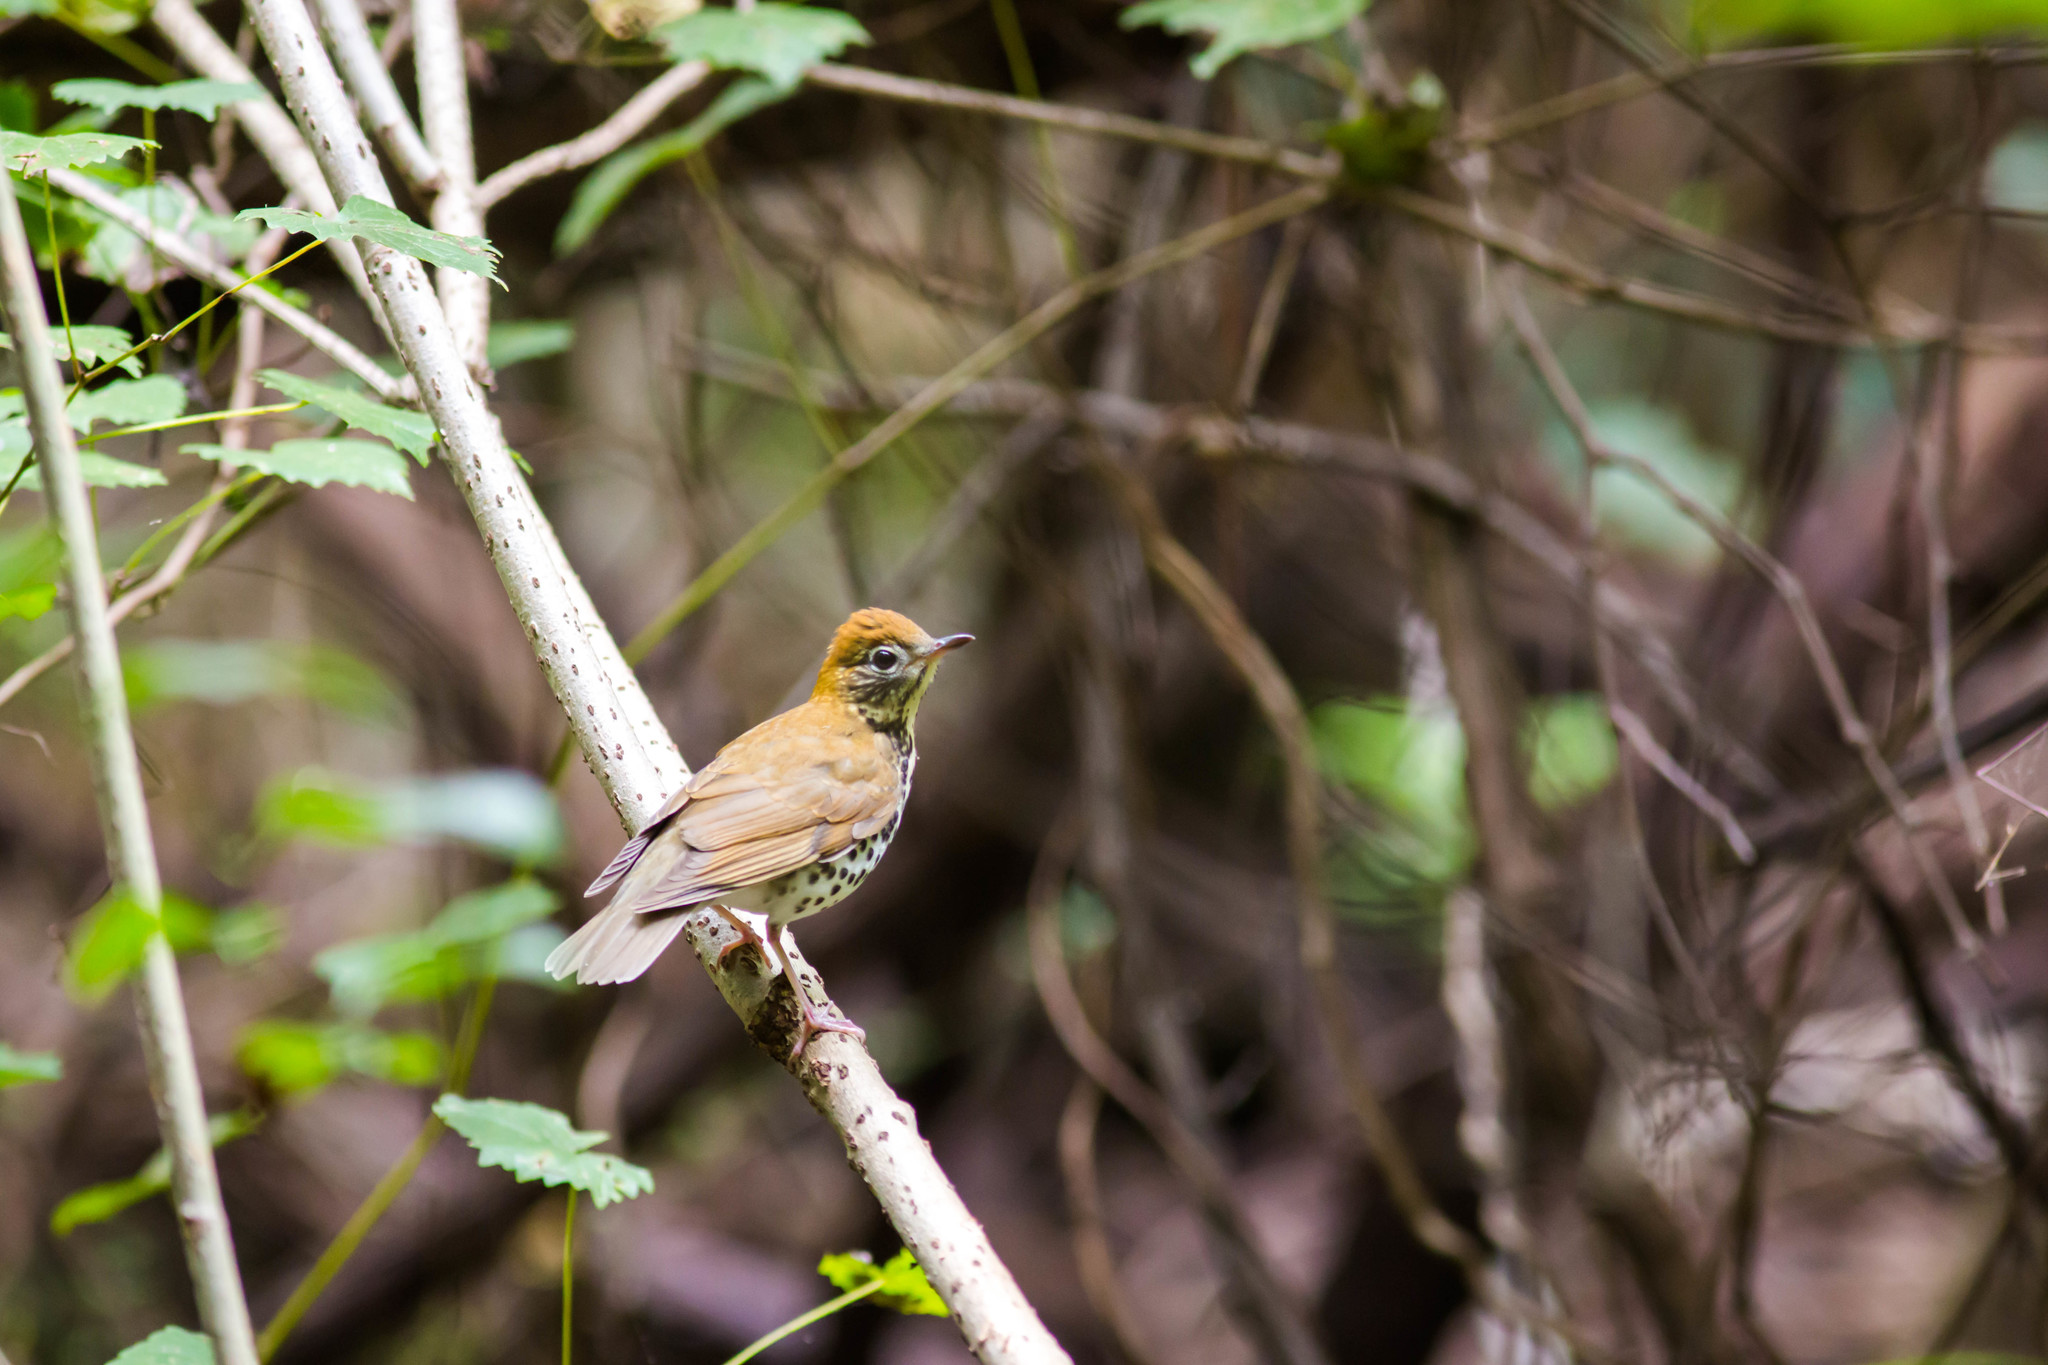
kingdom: Animalia
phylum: Chordata
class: Aves
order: Passeriformes
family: Turdidae
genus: Hylocichla
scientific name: Hylocichla mustelina
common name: Wood thrush
